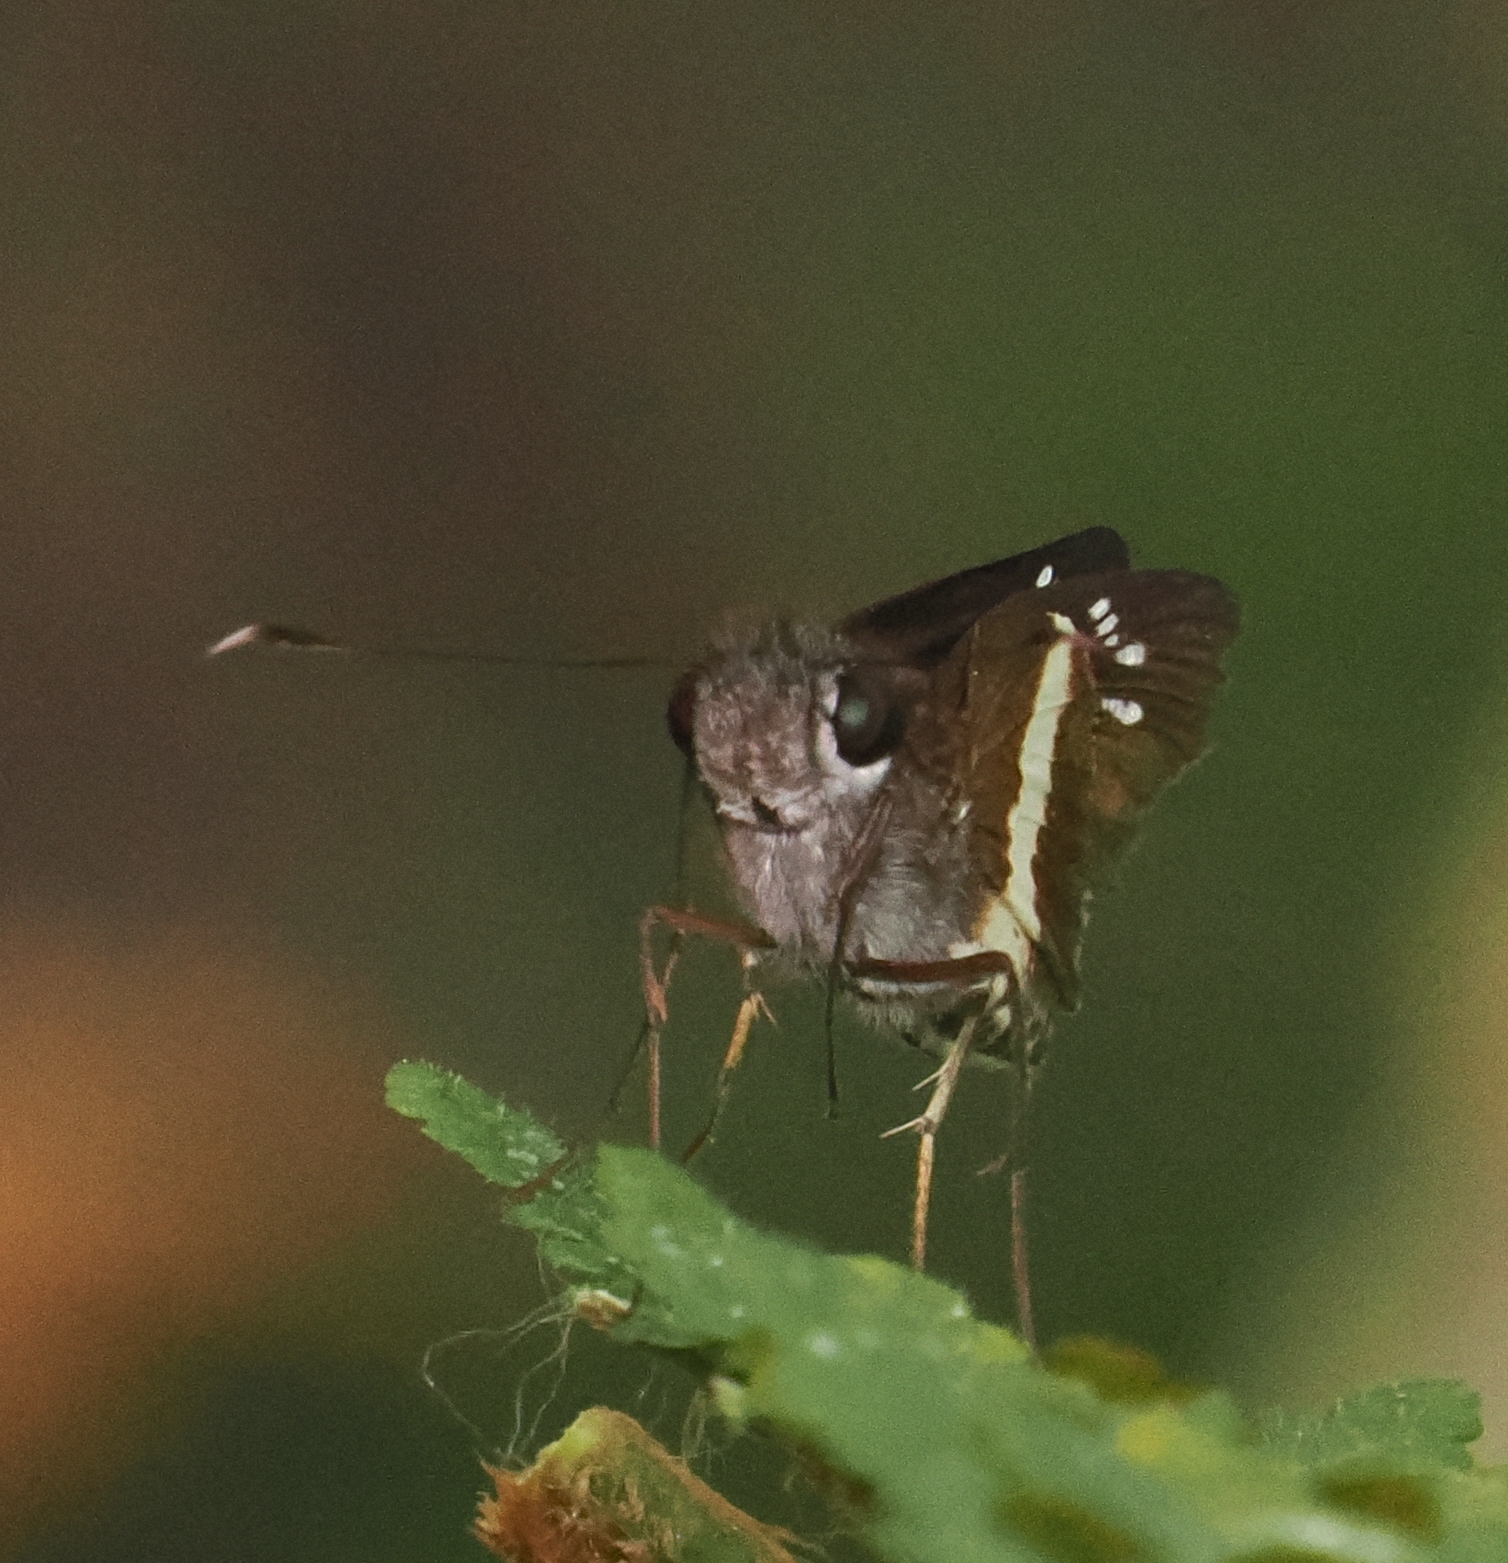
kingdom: Animalia
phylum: Arthropoda
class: Insecta
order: Lepidoptera
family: Hesperiidae
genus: Zenis
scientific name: Zenis
